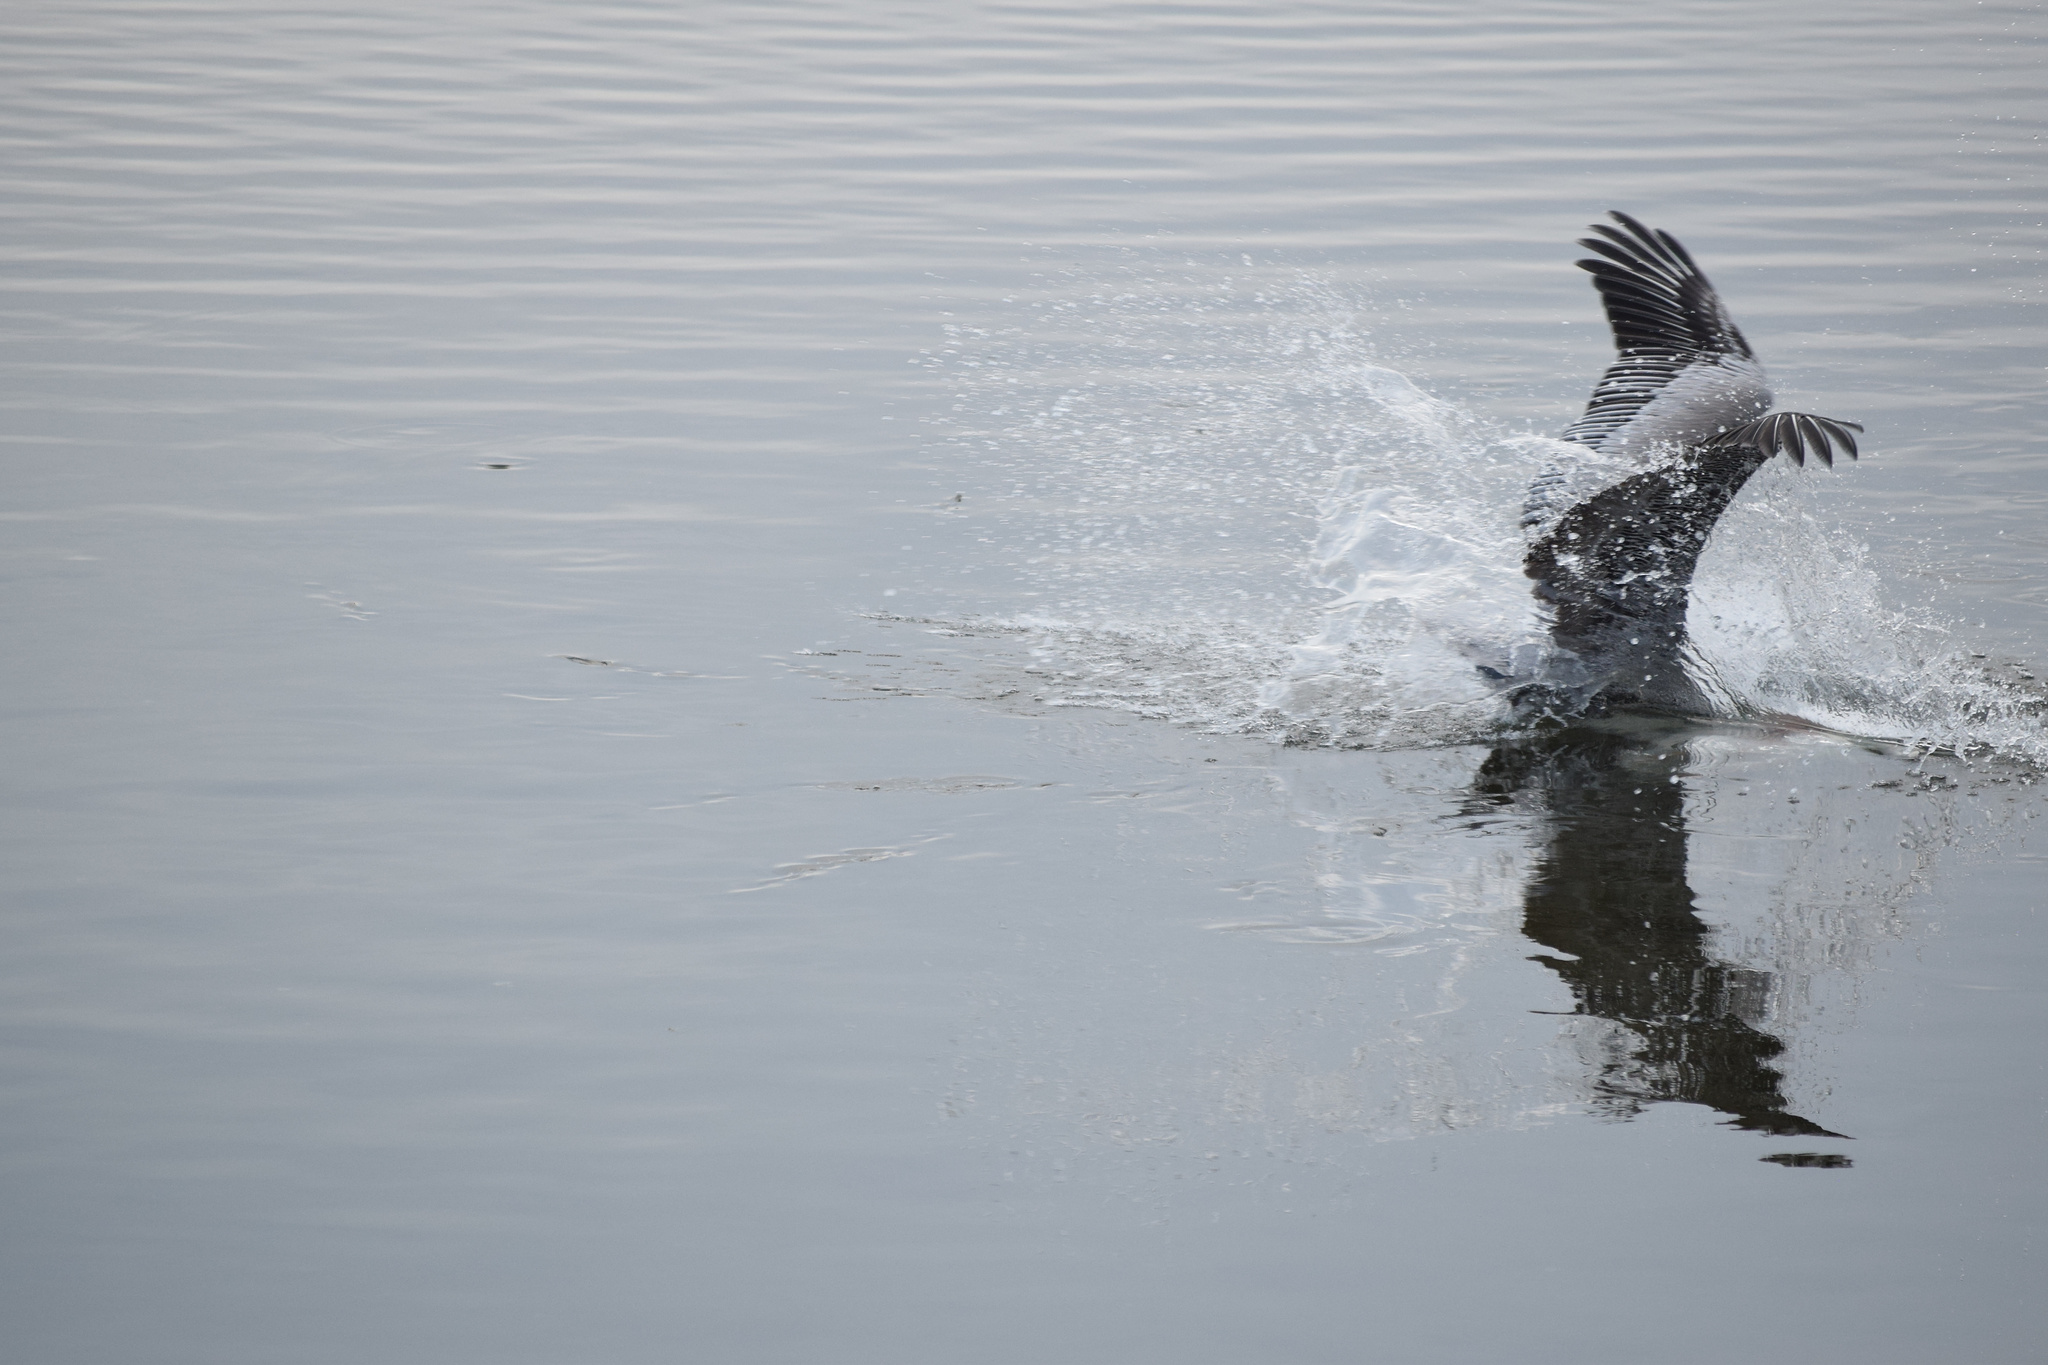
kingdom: Animalia
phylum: Chordata
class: Aves
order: Pelecaniformes
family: Pelecanidae
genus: Pelecanus
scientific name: Pelecanus occidentalis
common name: Brown pelican
